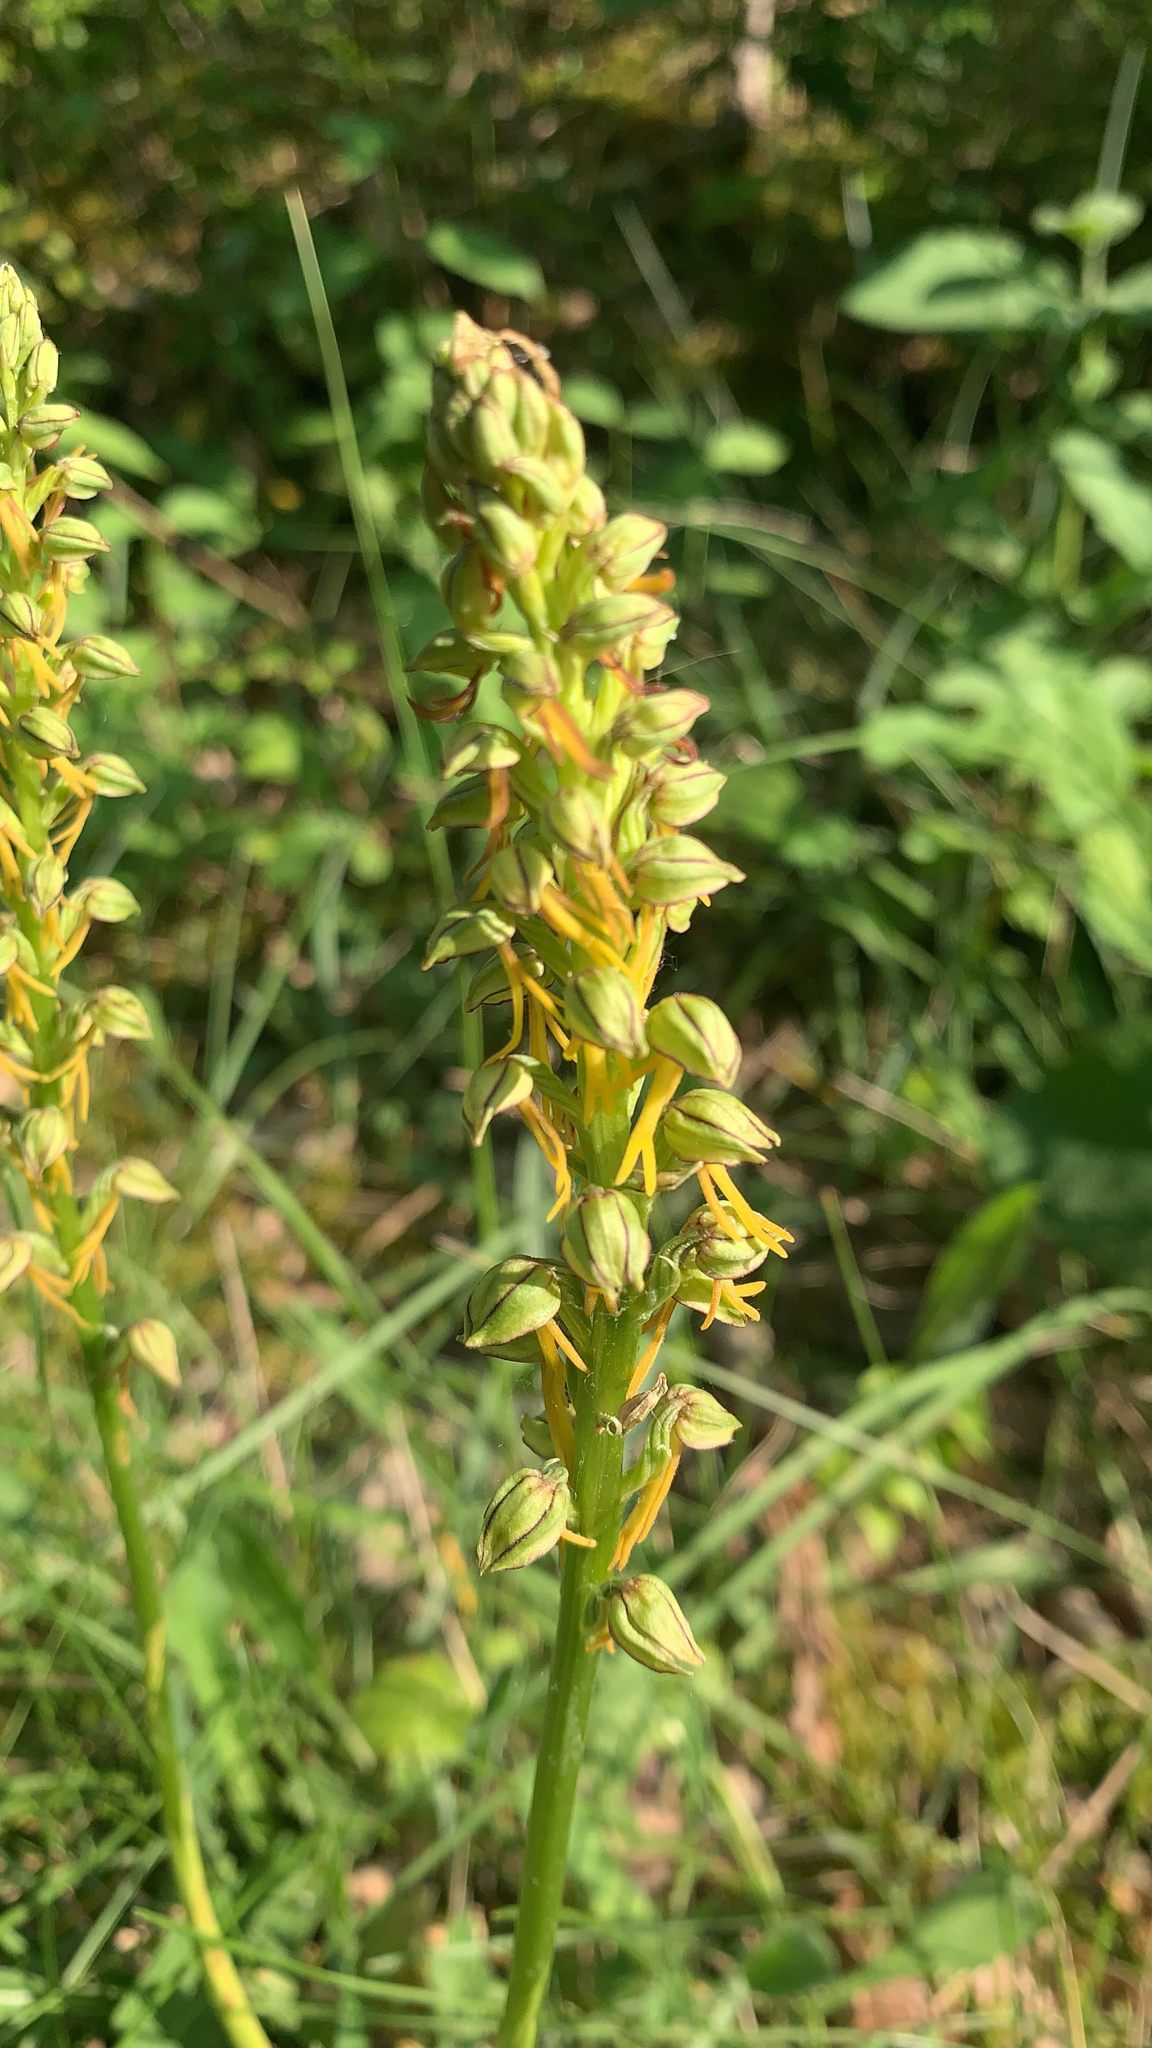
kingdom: Plantae
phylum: Tracheophyta
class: Liliopsida
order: Asparagales
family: Orchidaceae
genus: Orchis
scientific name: Orchis anthropophora
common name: Man orchid
